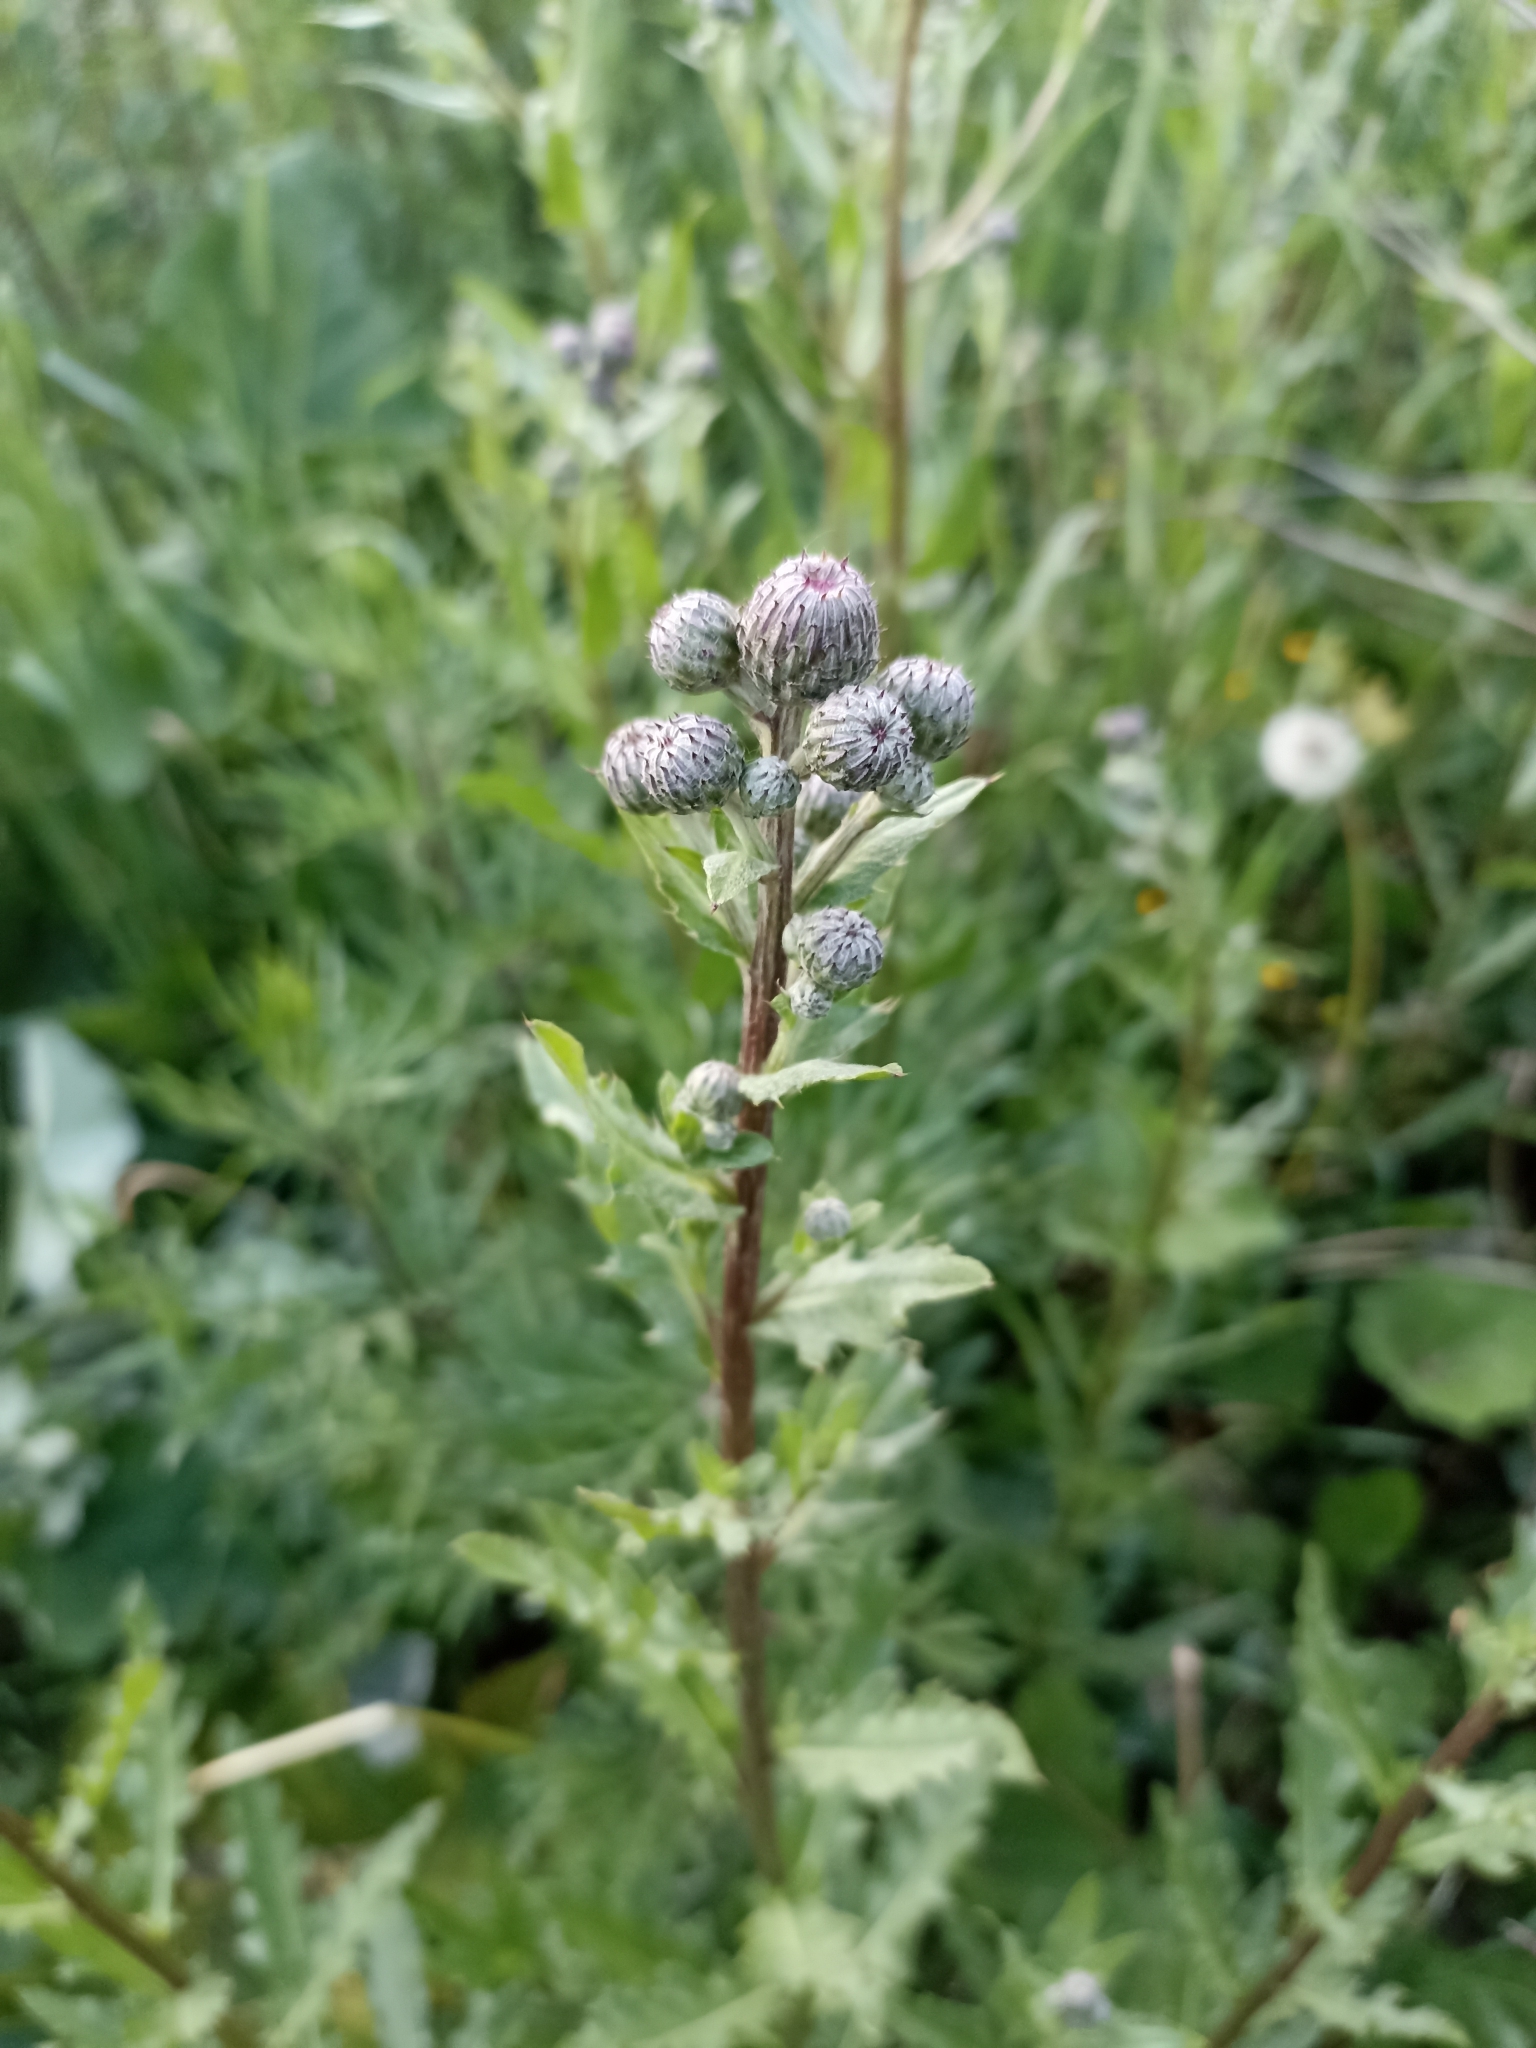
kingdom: Plantae
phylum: Tracheophyta
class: Magnoliopsida
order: Asterales
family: Asteraceae
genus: Cirsium
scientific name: Cirsium arvense
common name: Creeping thistle
